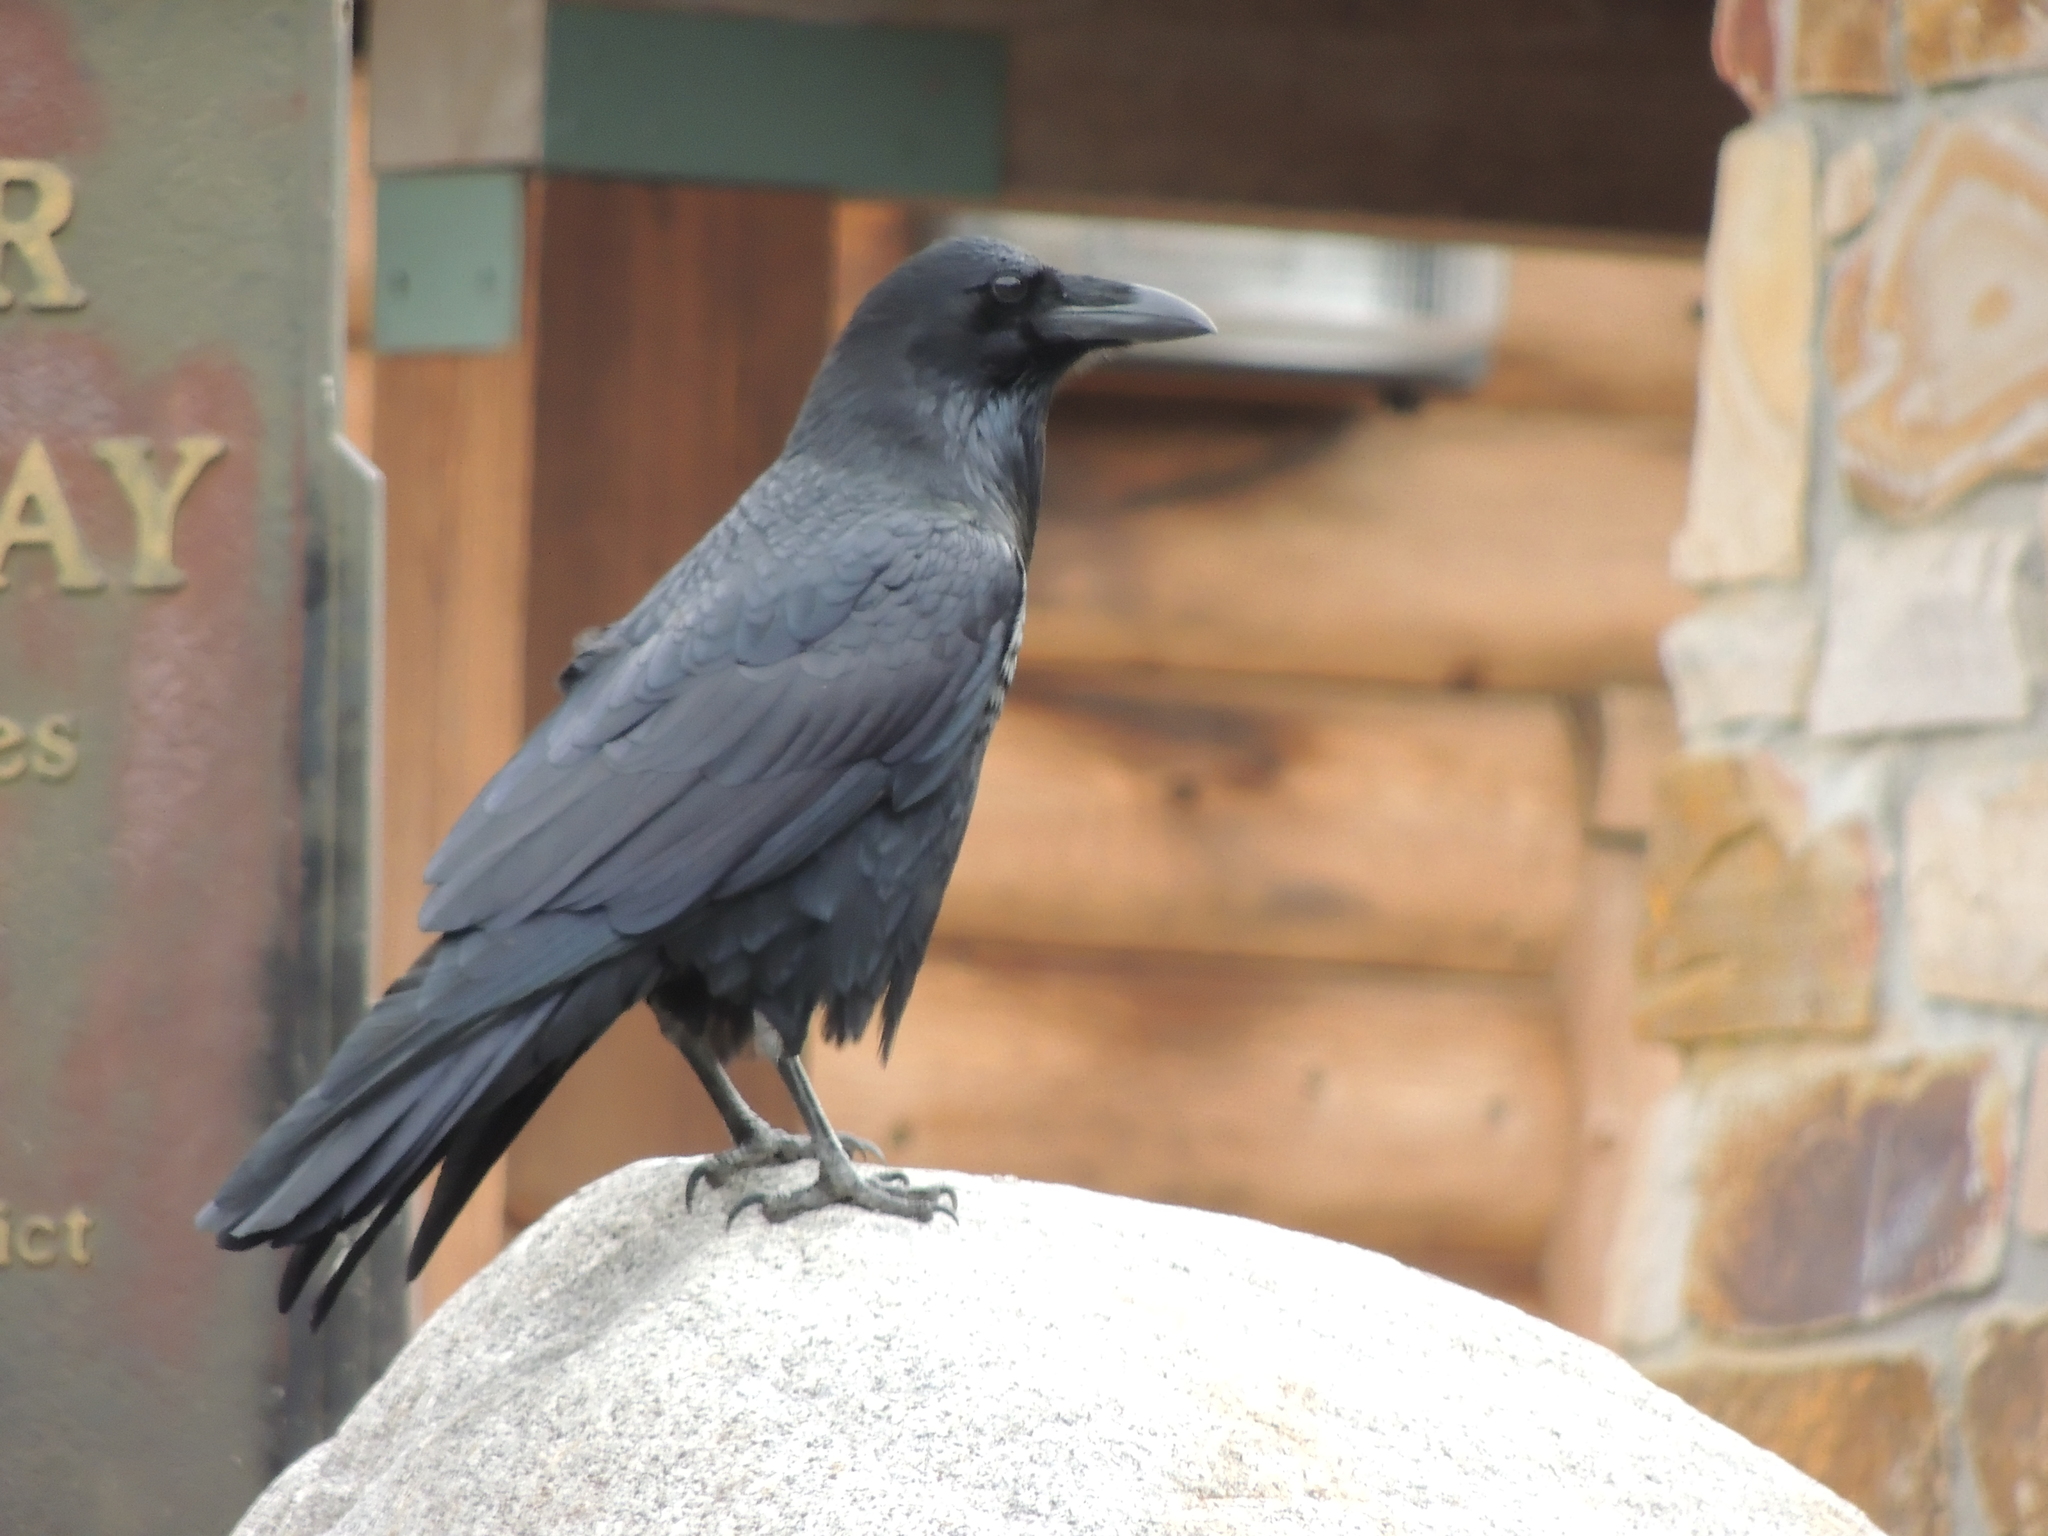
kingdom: Animalia
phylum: Chordata
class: Aves
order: Passeriformes
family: Corvidae
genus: Corvus
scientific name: Corvus corax
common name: Common raven
